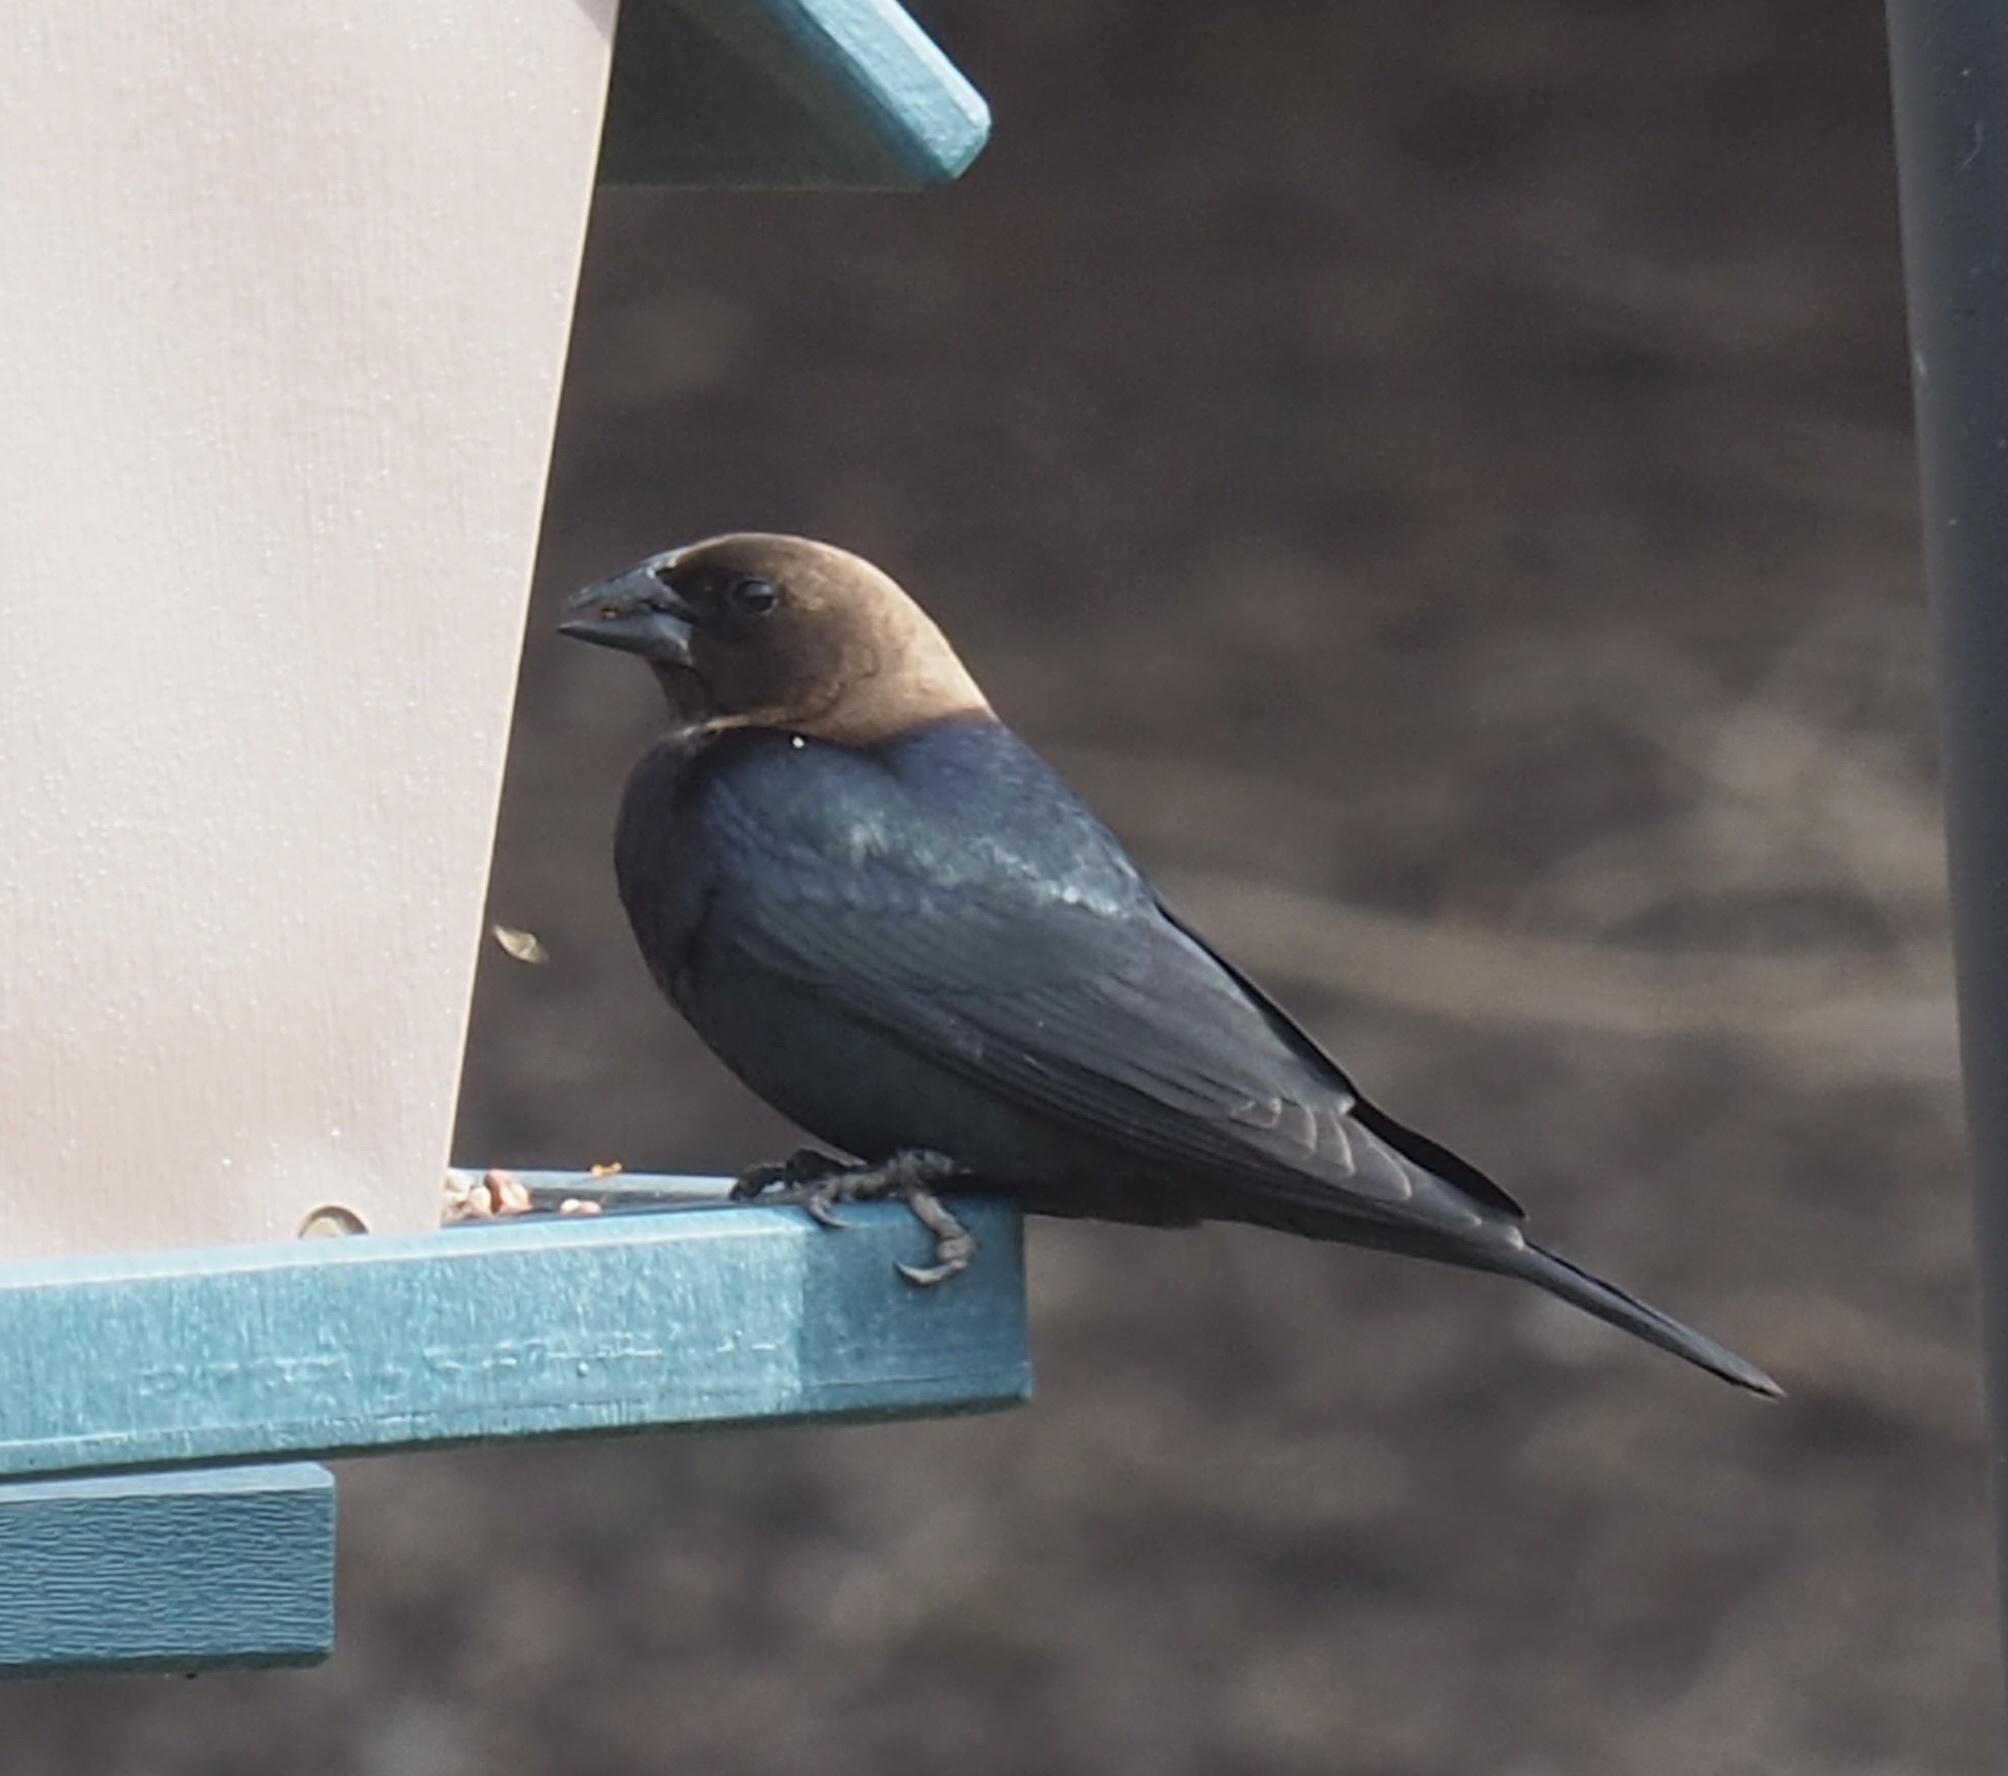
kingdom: Animalia
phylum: Chordata
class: Aves
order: Passeriformes
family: Icteridae
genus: Molothrus
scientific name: Molothrus ater
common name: Brown-headed cowbird
